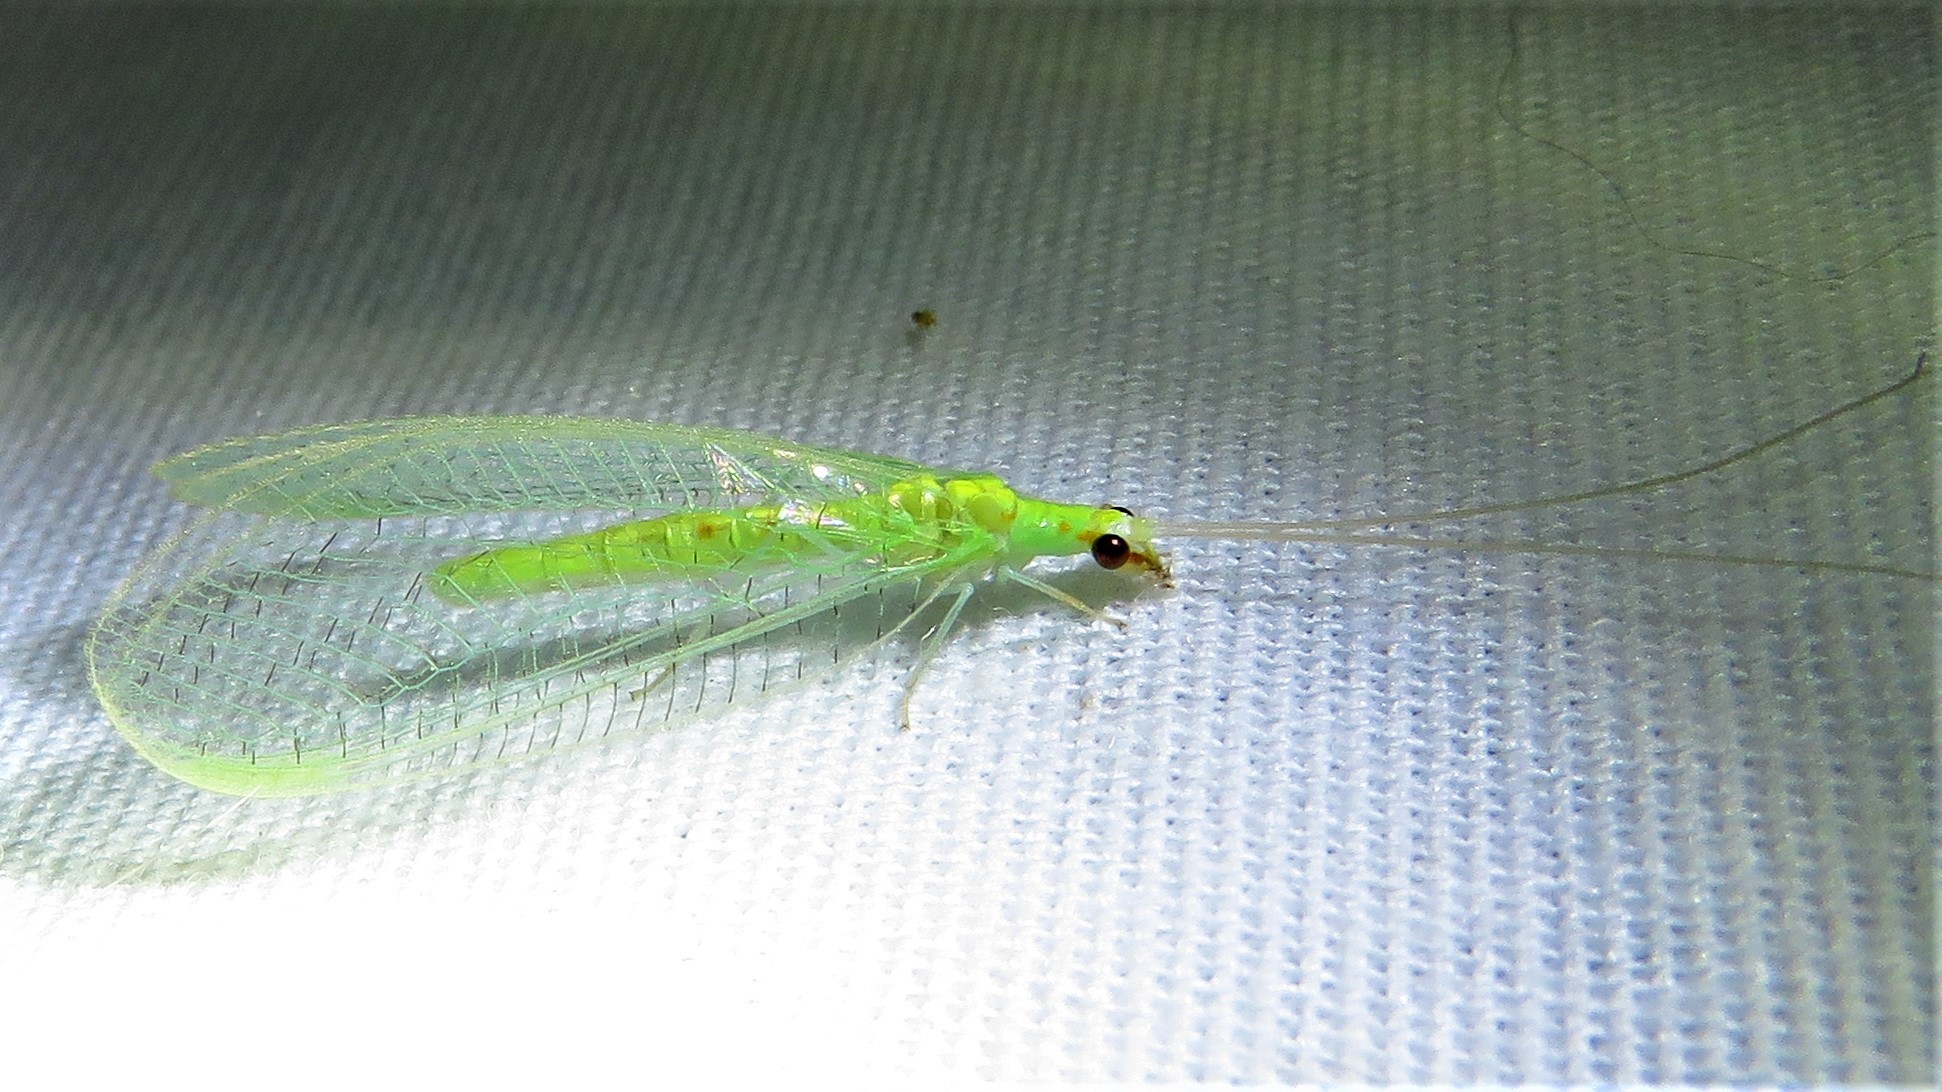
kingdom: Animalia
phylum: Arthropoda
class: Insecta
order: Neuroptera
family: Chrysopidae
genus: Chrysoperla
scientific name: Chrysoperla rufilabris
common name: Red-lipped green lacewing
